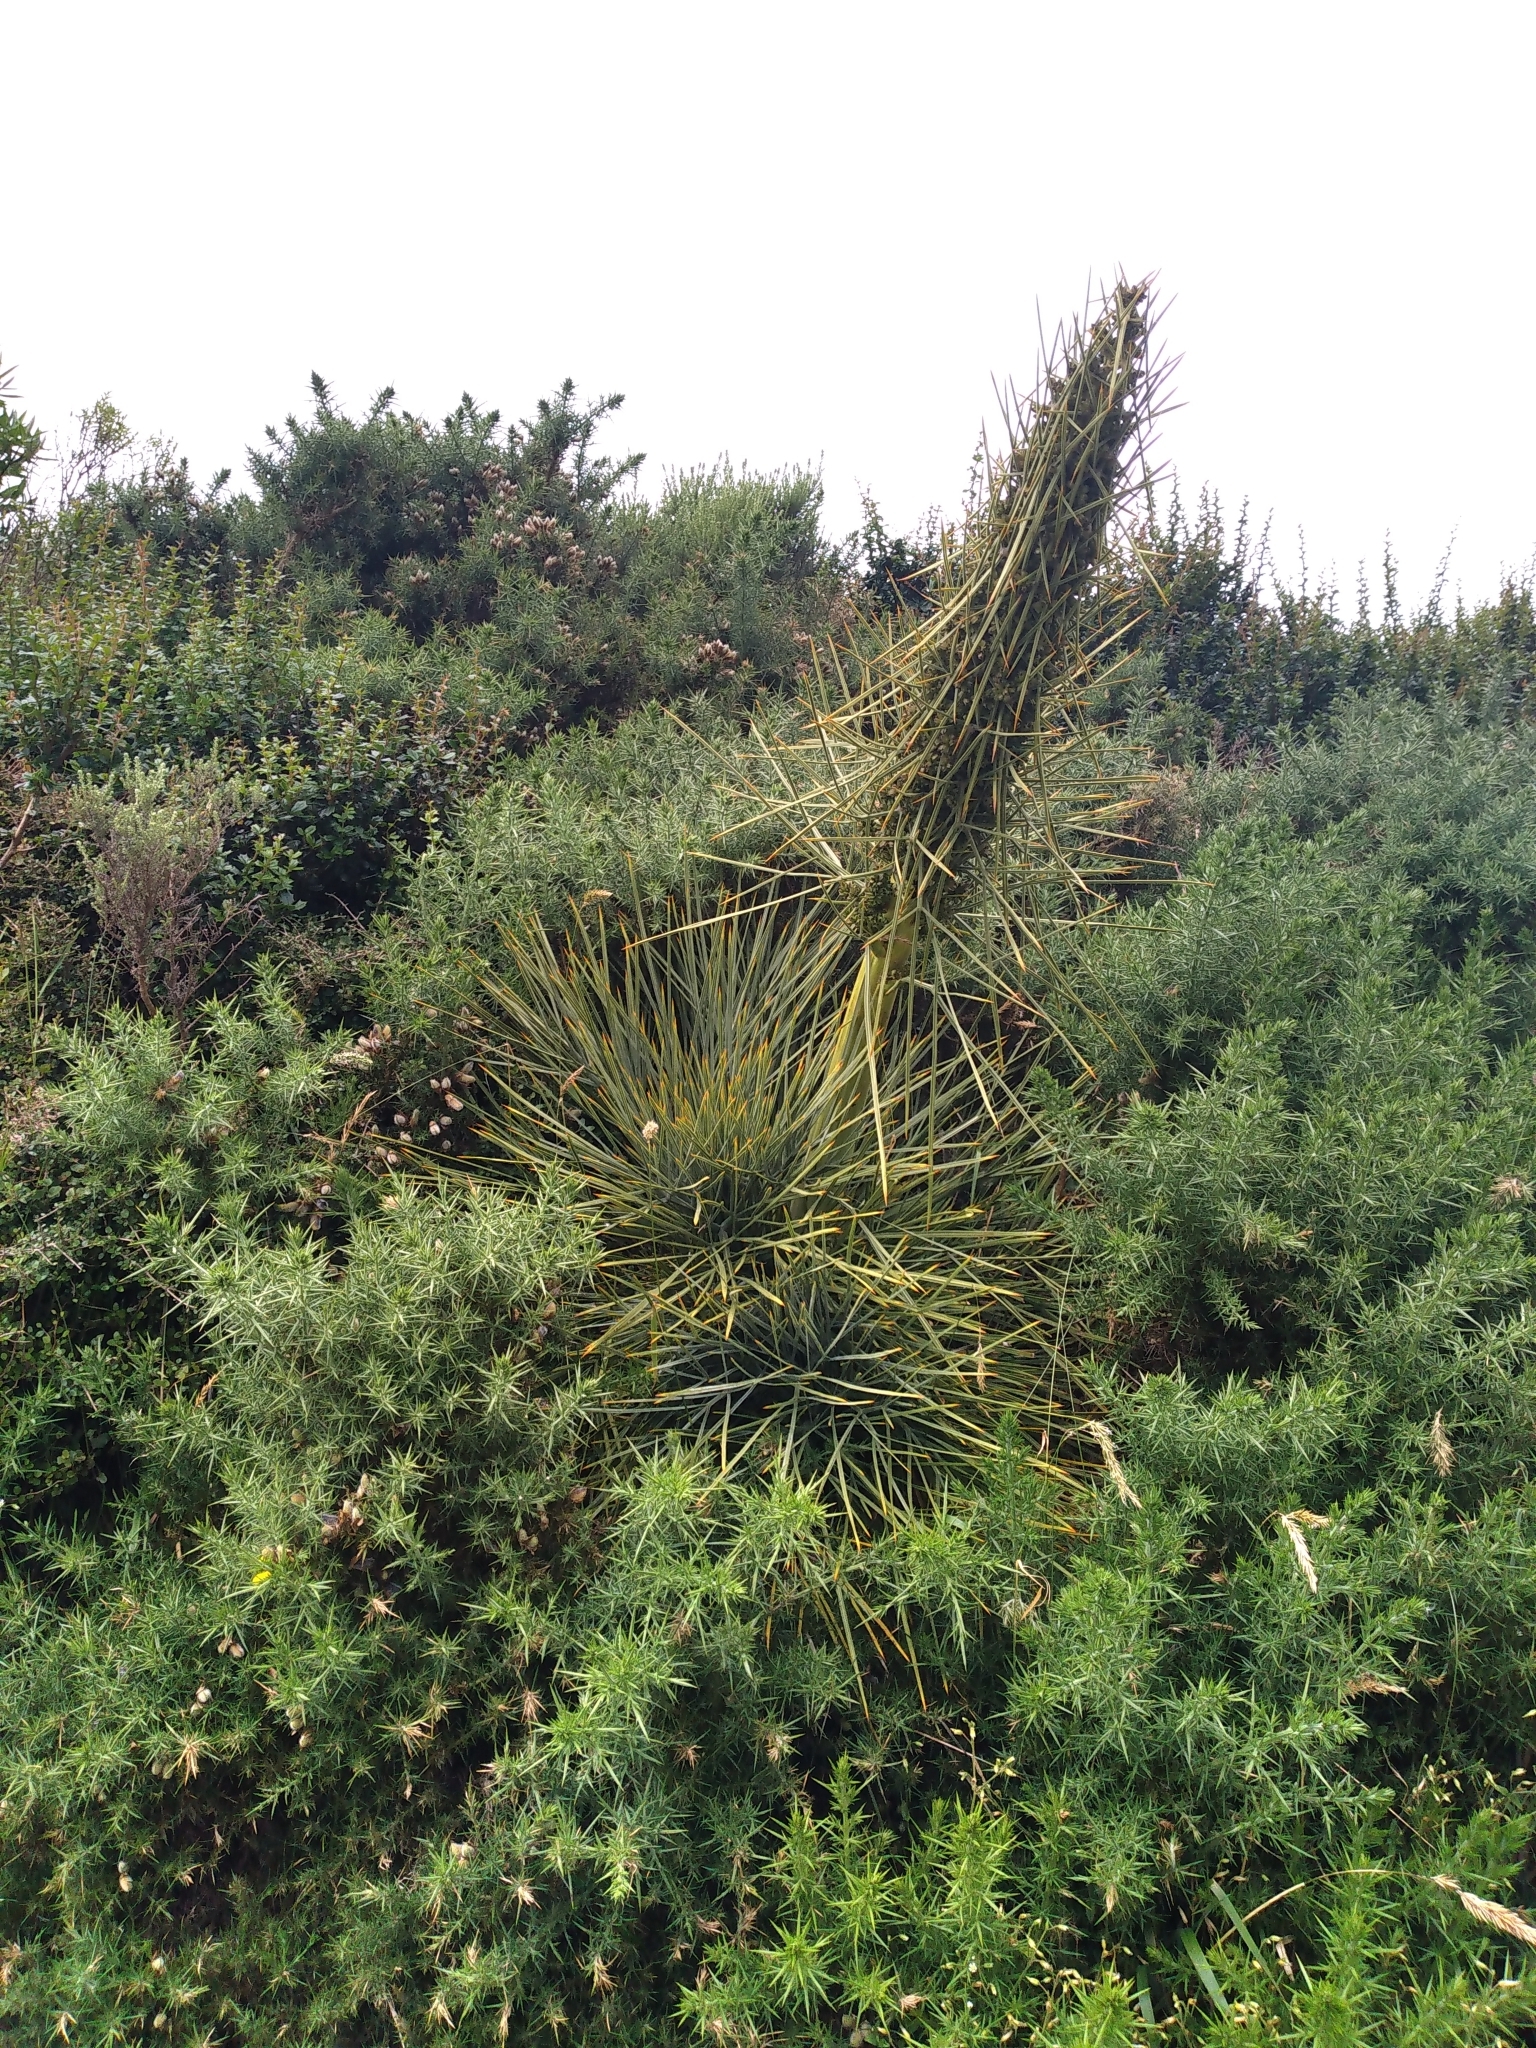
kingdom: Plantae
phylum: Tracheophyta
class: Magnoliopsida
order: Apiales
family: Apiaceae
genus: Aciphylla
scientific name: Aciphylla squarrosa
